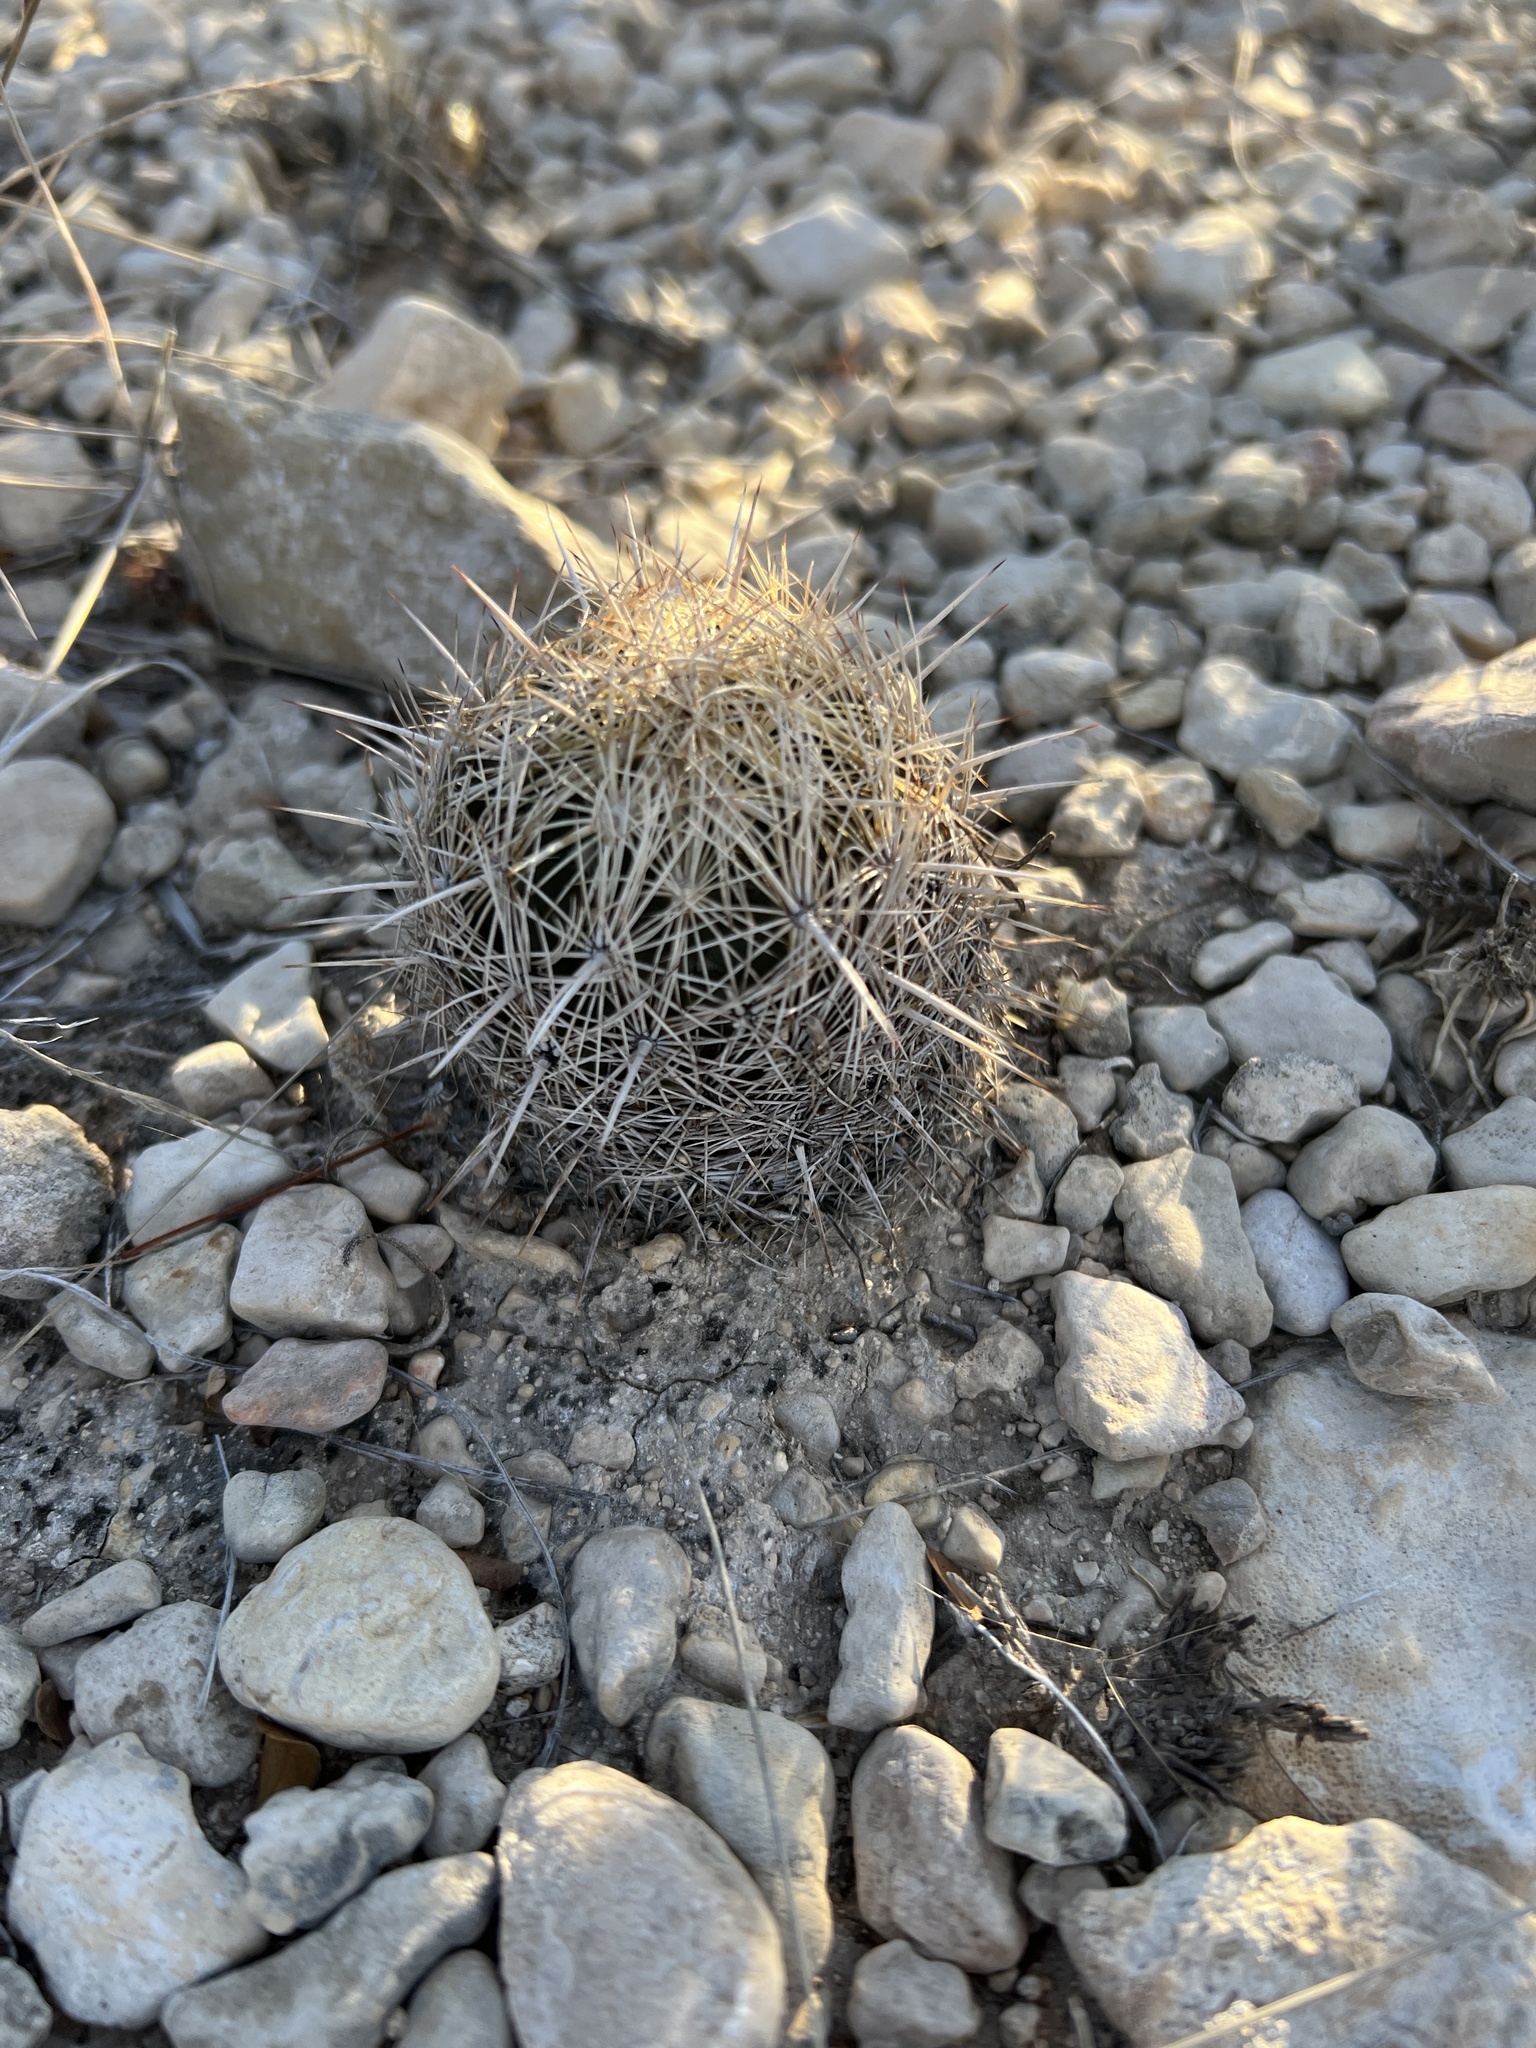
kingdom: Plantae
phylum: Tracheophyta
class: Magnoliopsida
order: Caryophyllales
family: Cactaceae
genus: Coryphantha
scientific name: Coryphantha echinus
